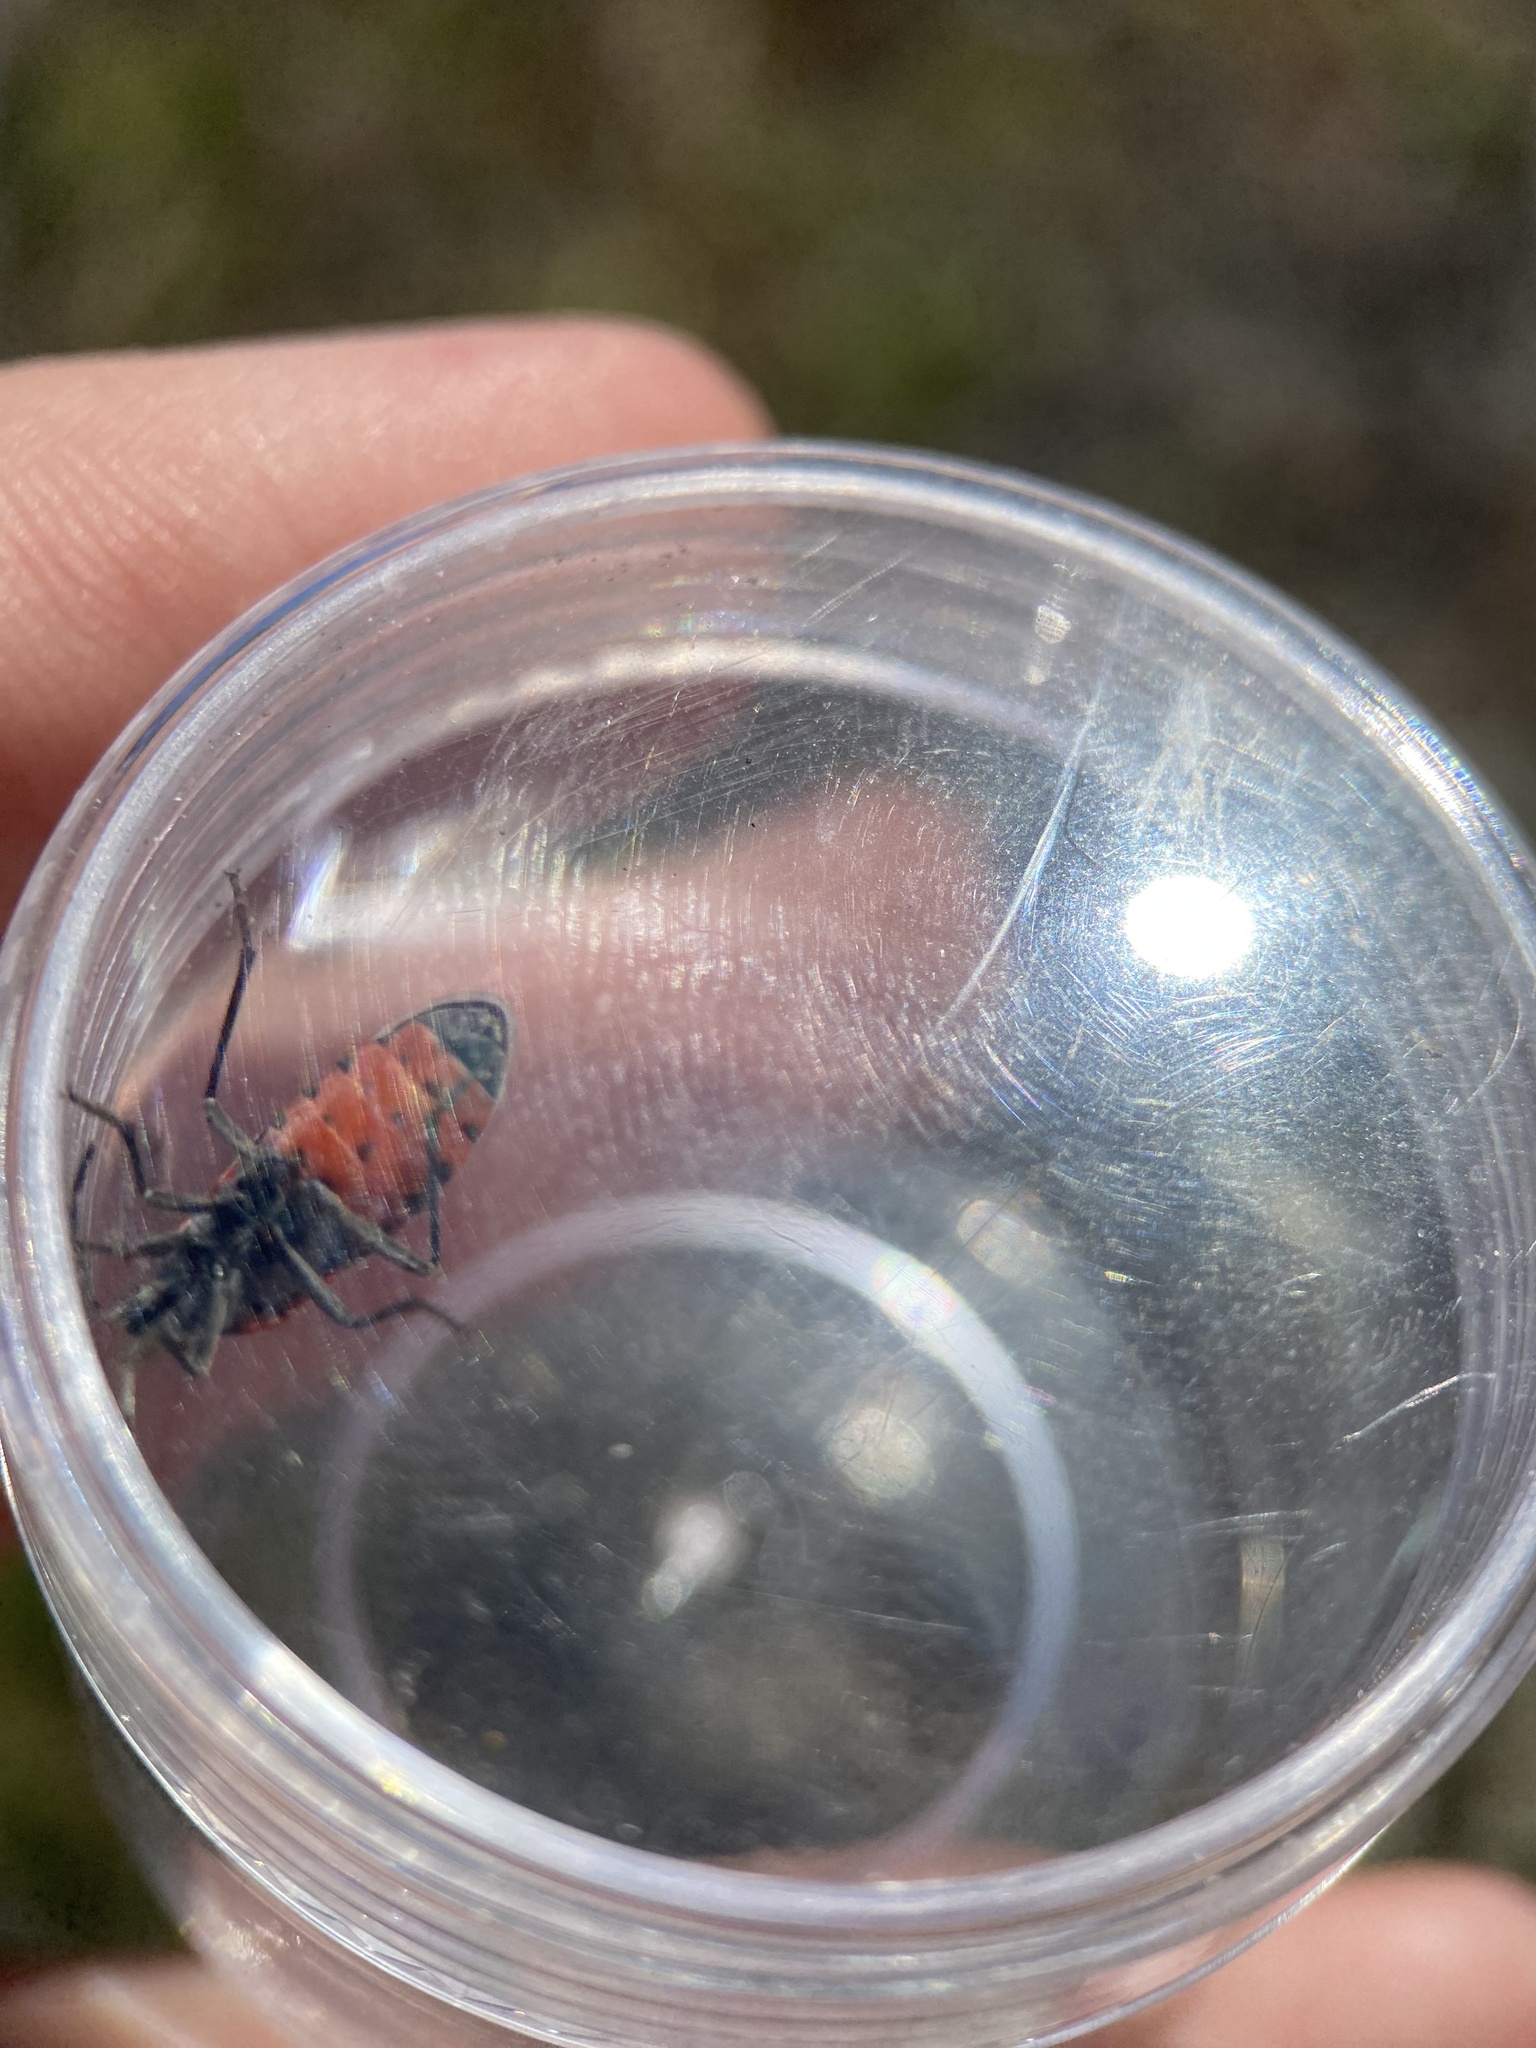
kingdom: Animalia
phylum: Arthropoda
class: Insecta
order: Hemiptera
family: Lygaeidae
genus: Lygaeus
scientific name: Lygaeus kalmii
